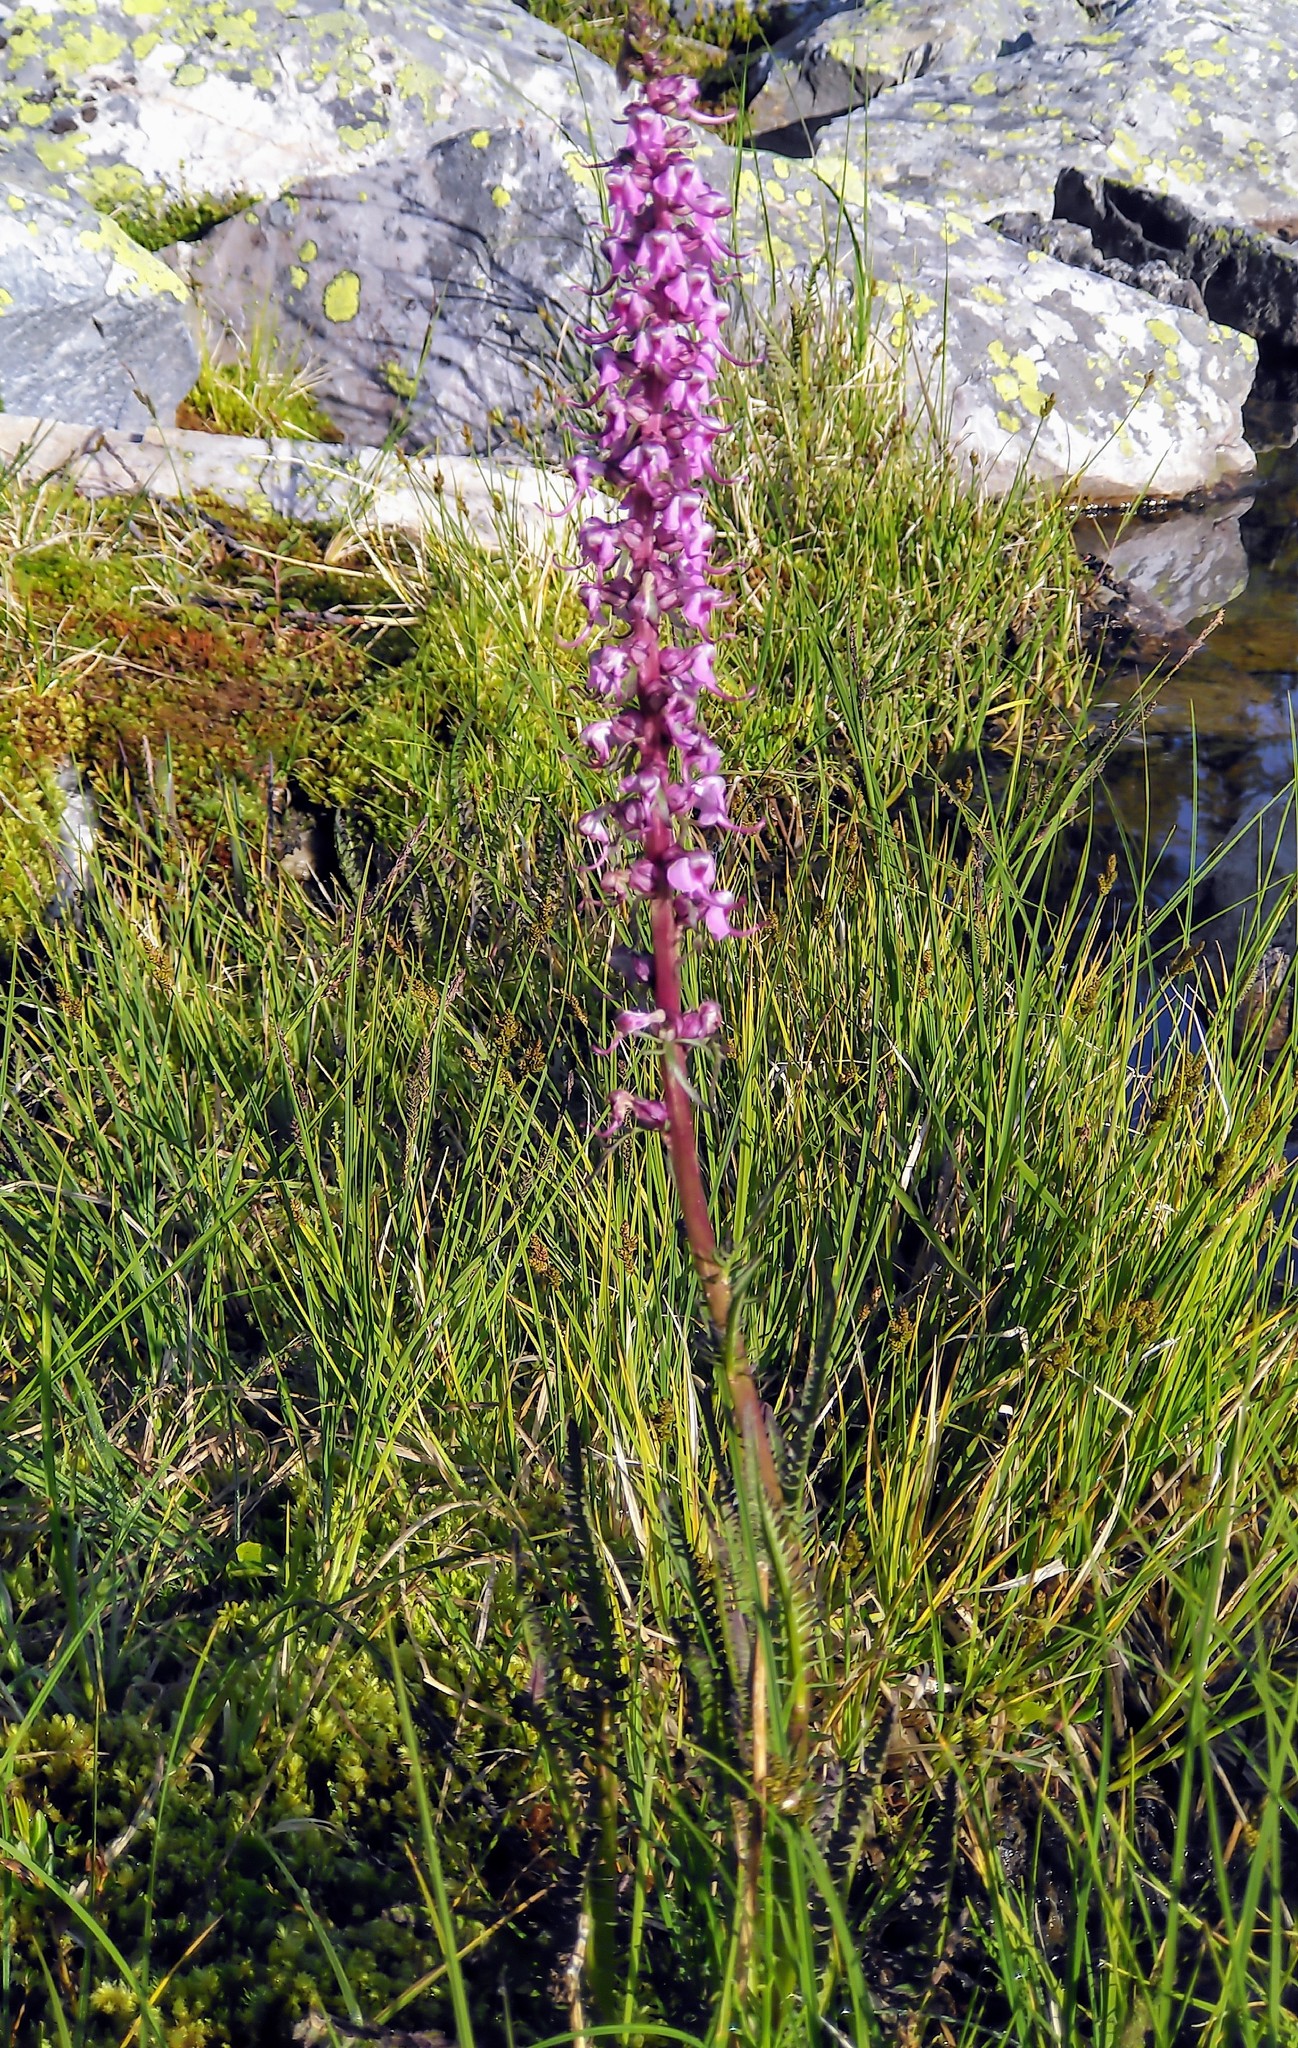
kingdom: Plantae
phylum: Tracheophyta
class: Magnoliopsida
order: Lamiales
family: Orobanchaceae
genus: Pedicularis
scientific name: Pedicularis groenlandica
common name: Elephant's-head
